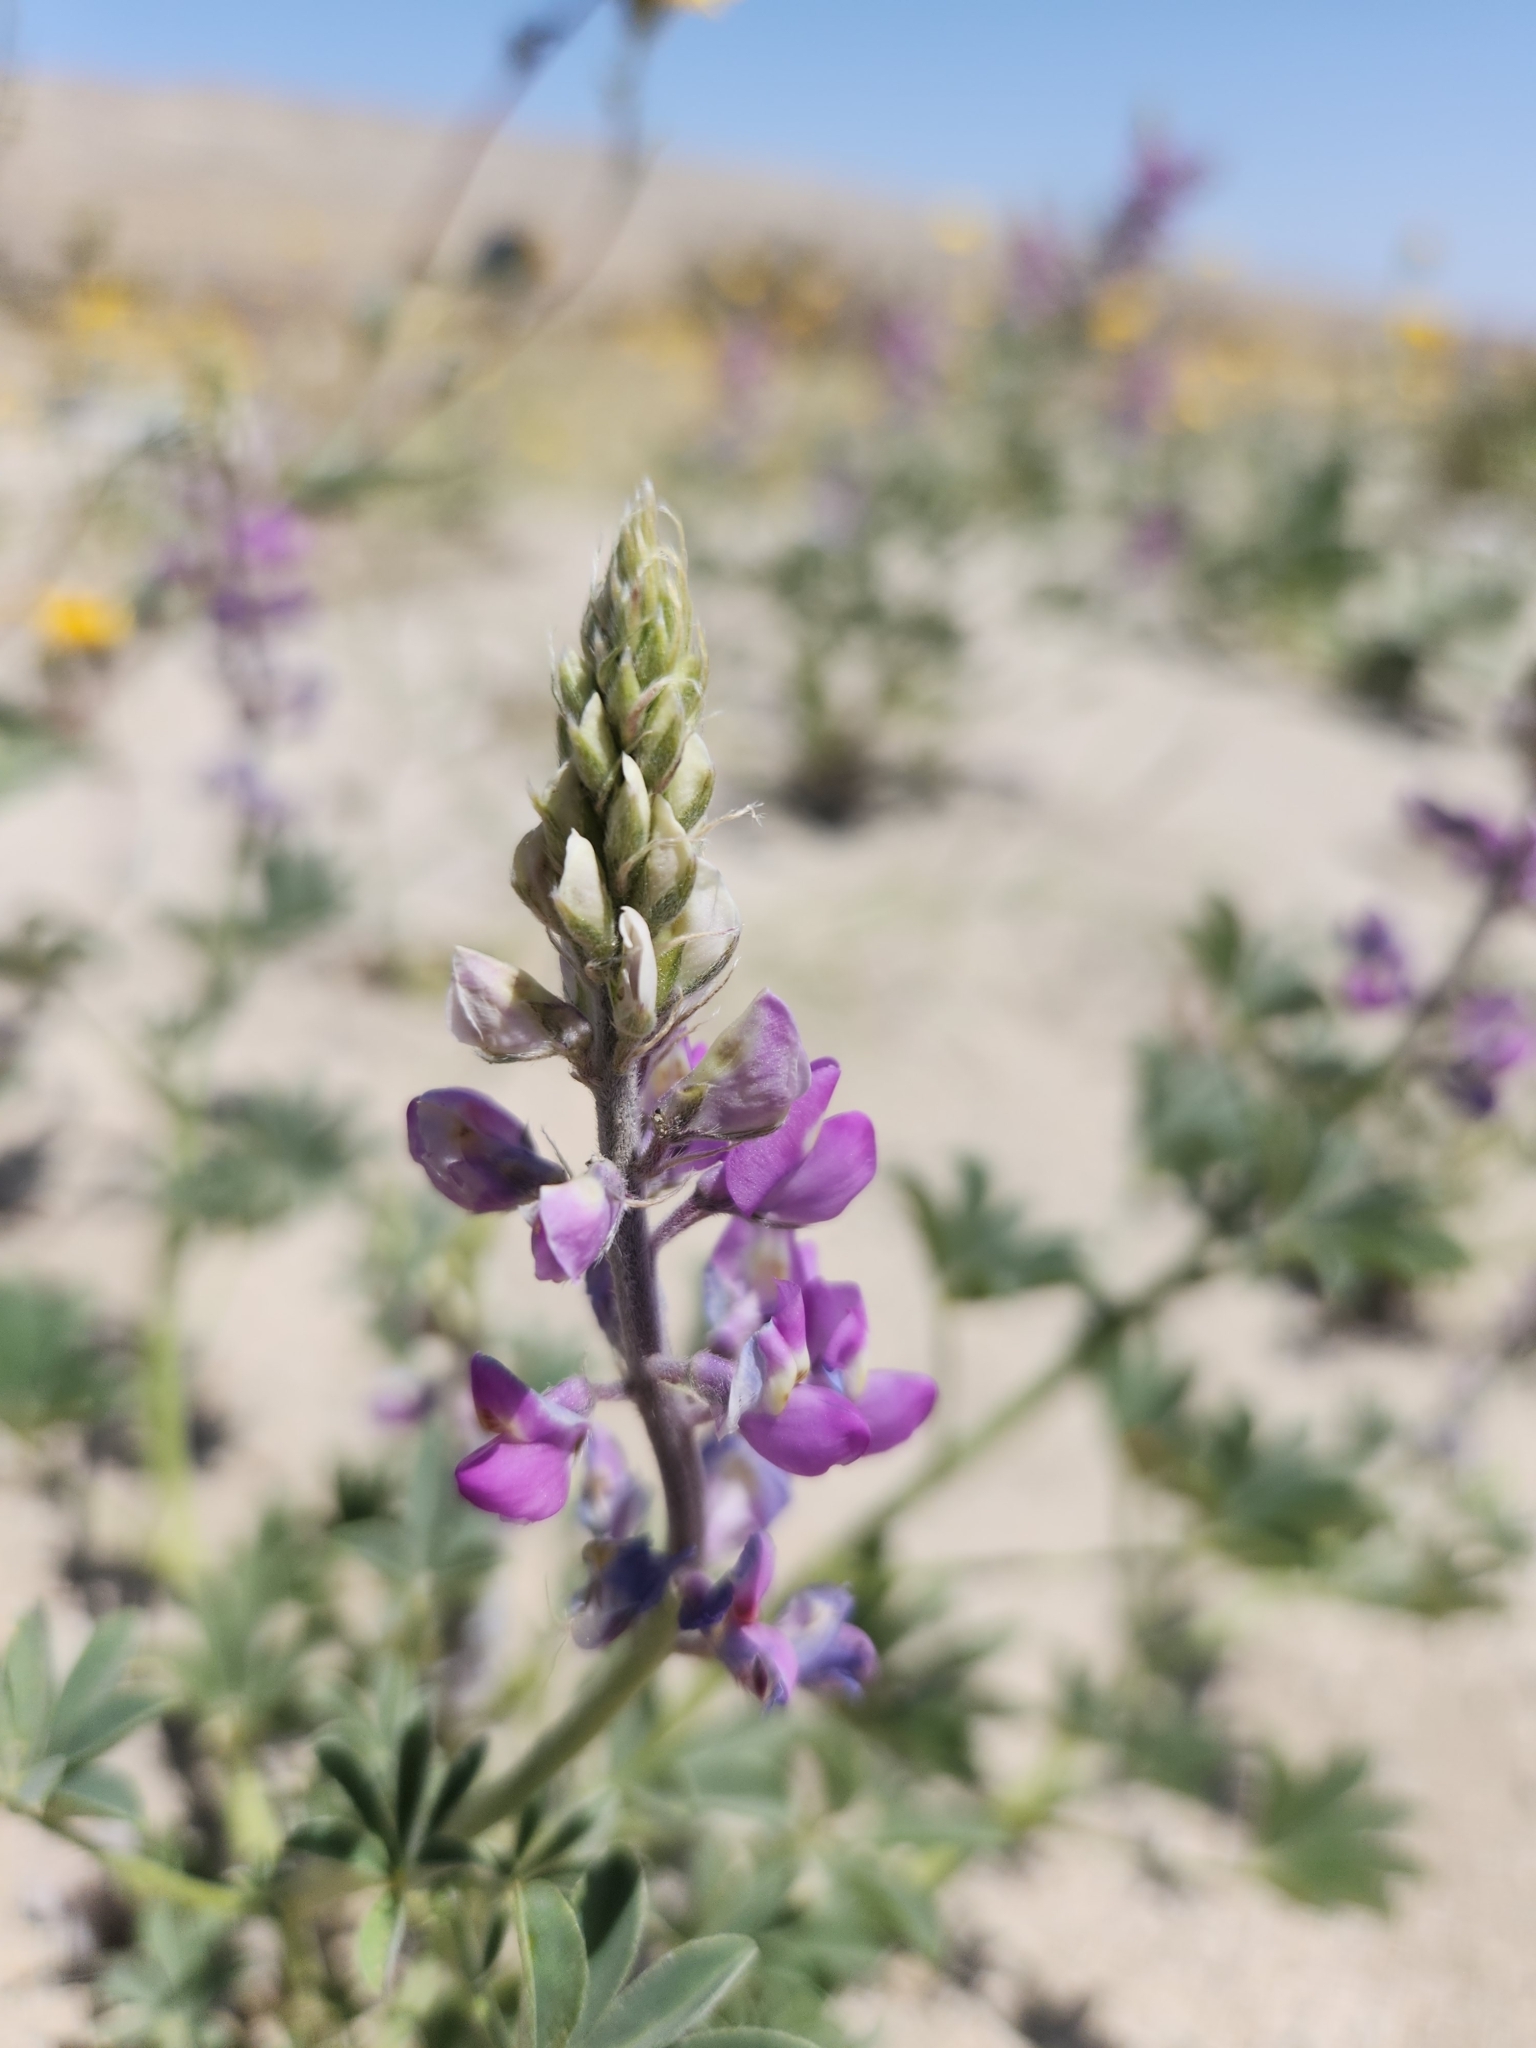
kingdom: Plantae
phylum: Tracheophyta
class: Magnoliopsida
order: Fabales
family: Fabaceae
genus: Lupinus
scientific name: Lupinus arizonicus
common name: Arizona lupine
